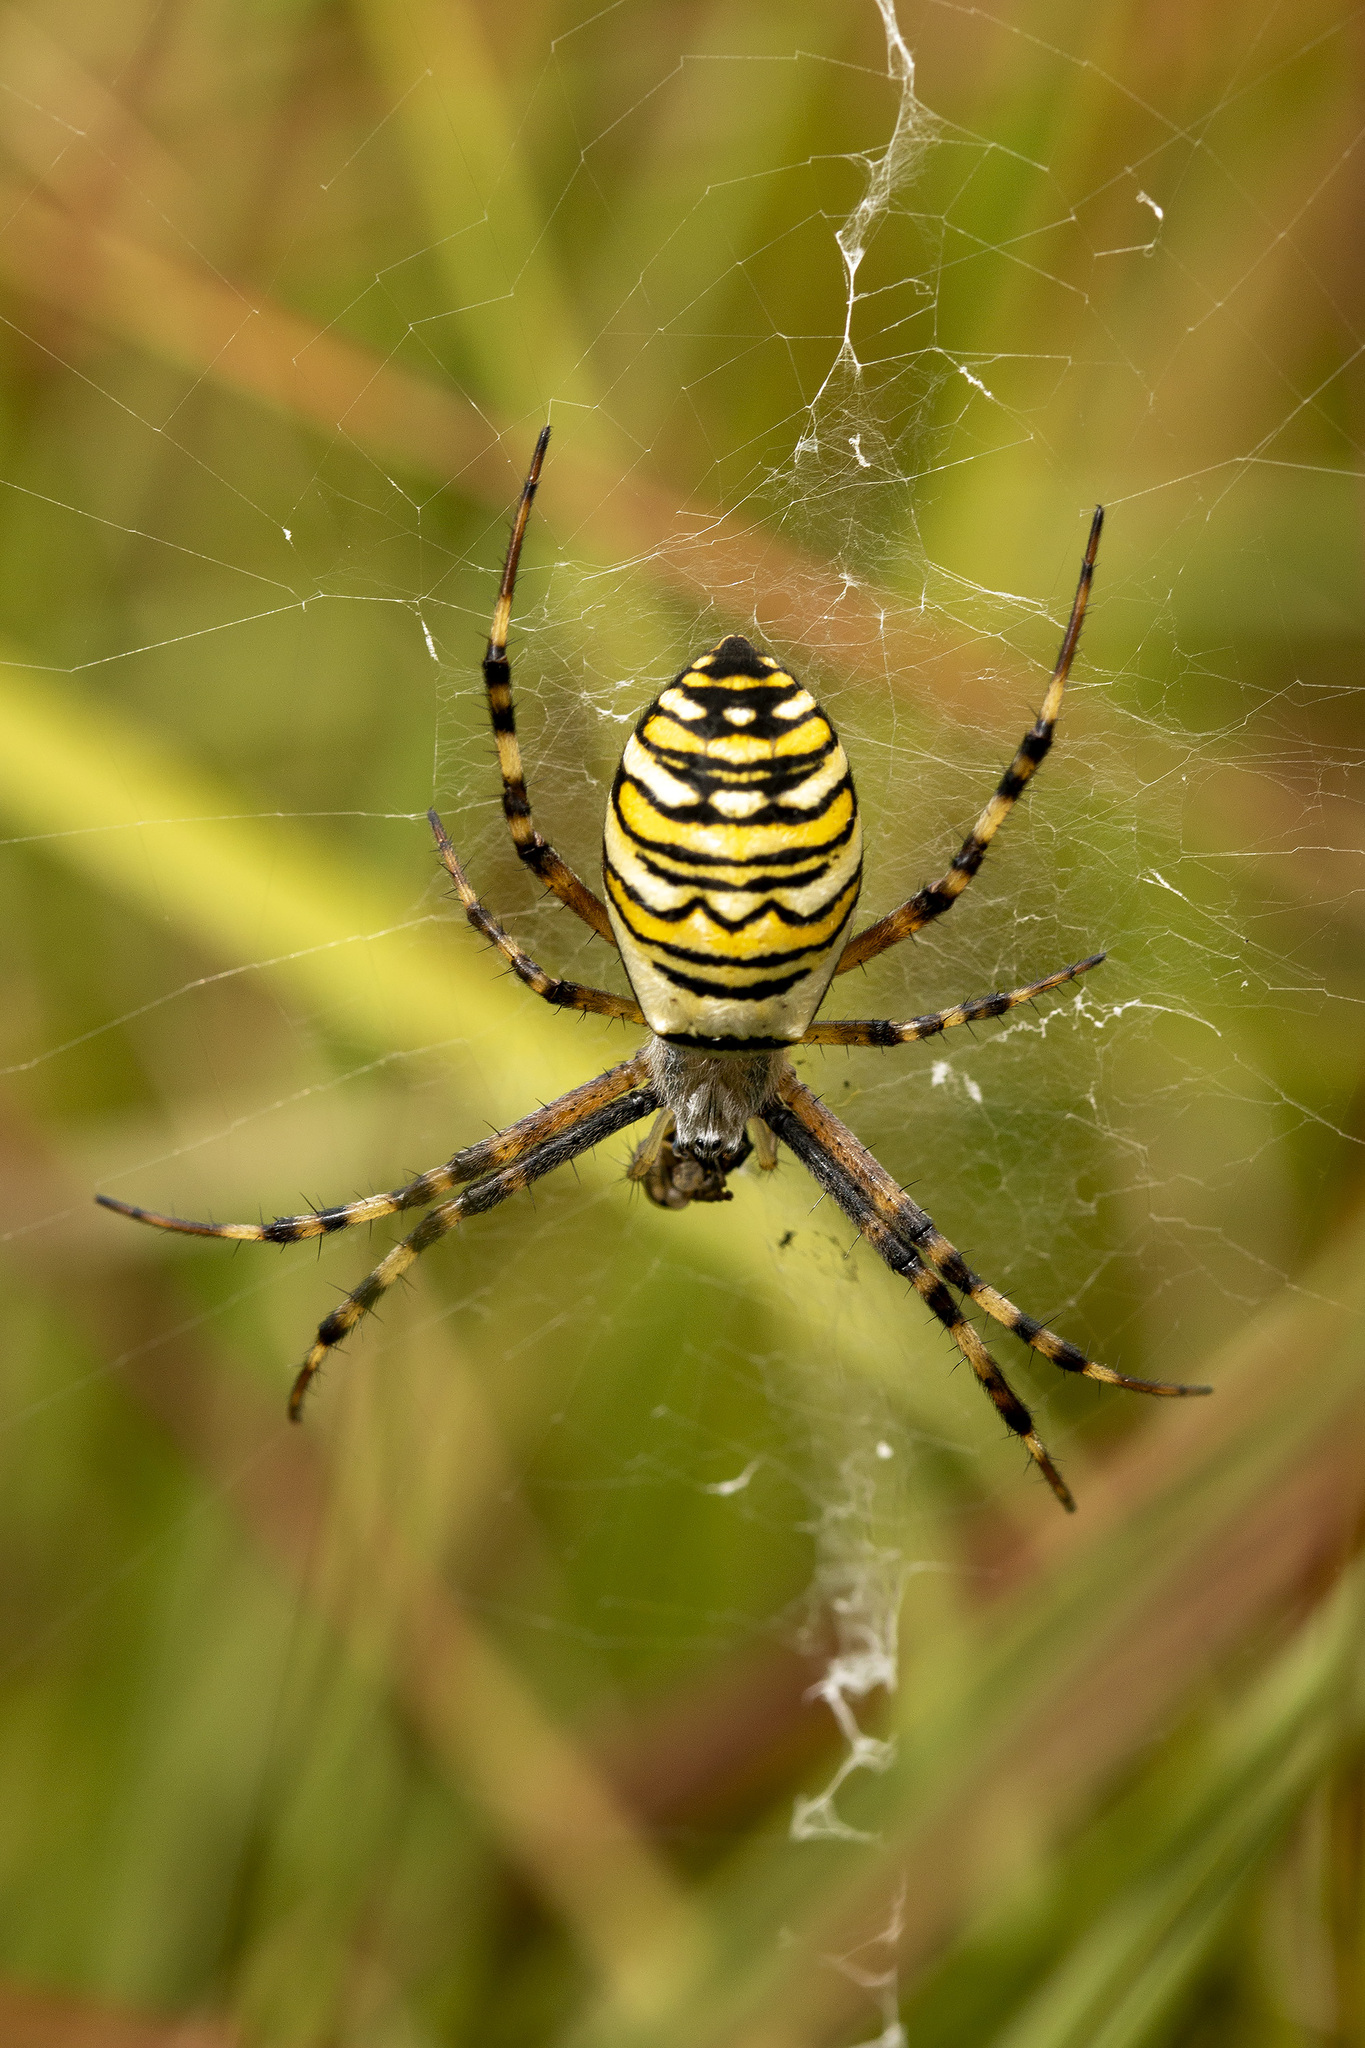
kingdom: Animalia
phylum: Arthropoda
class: Arachnida
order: Araneae
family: Araneidae
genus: Argiope
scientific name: Argiope bruennichi
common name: Wasp spider
